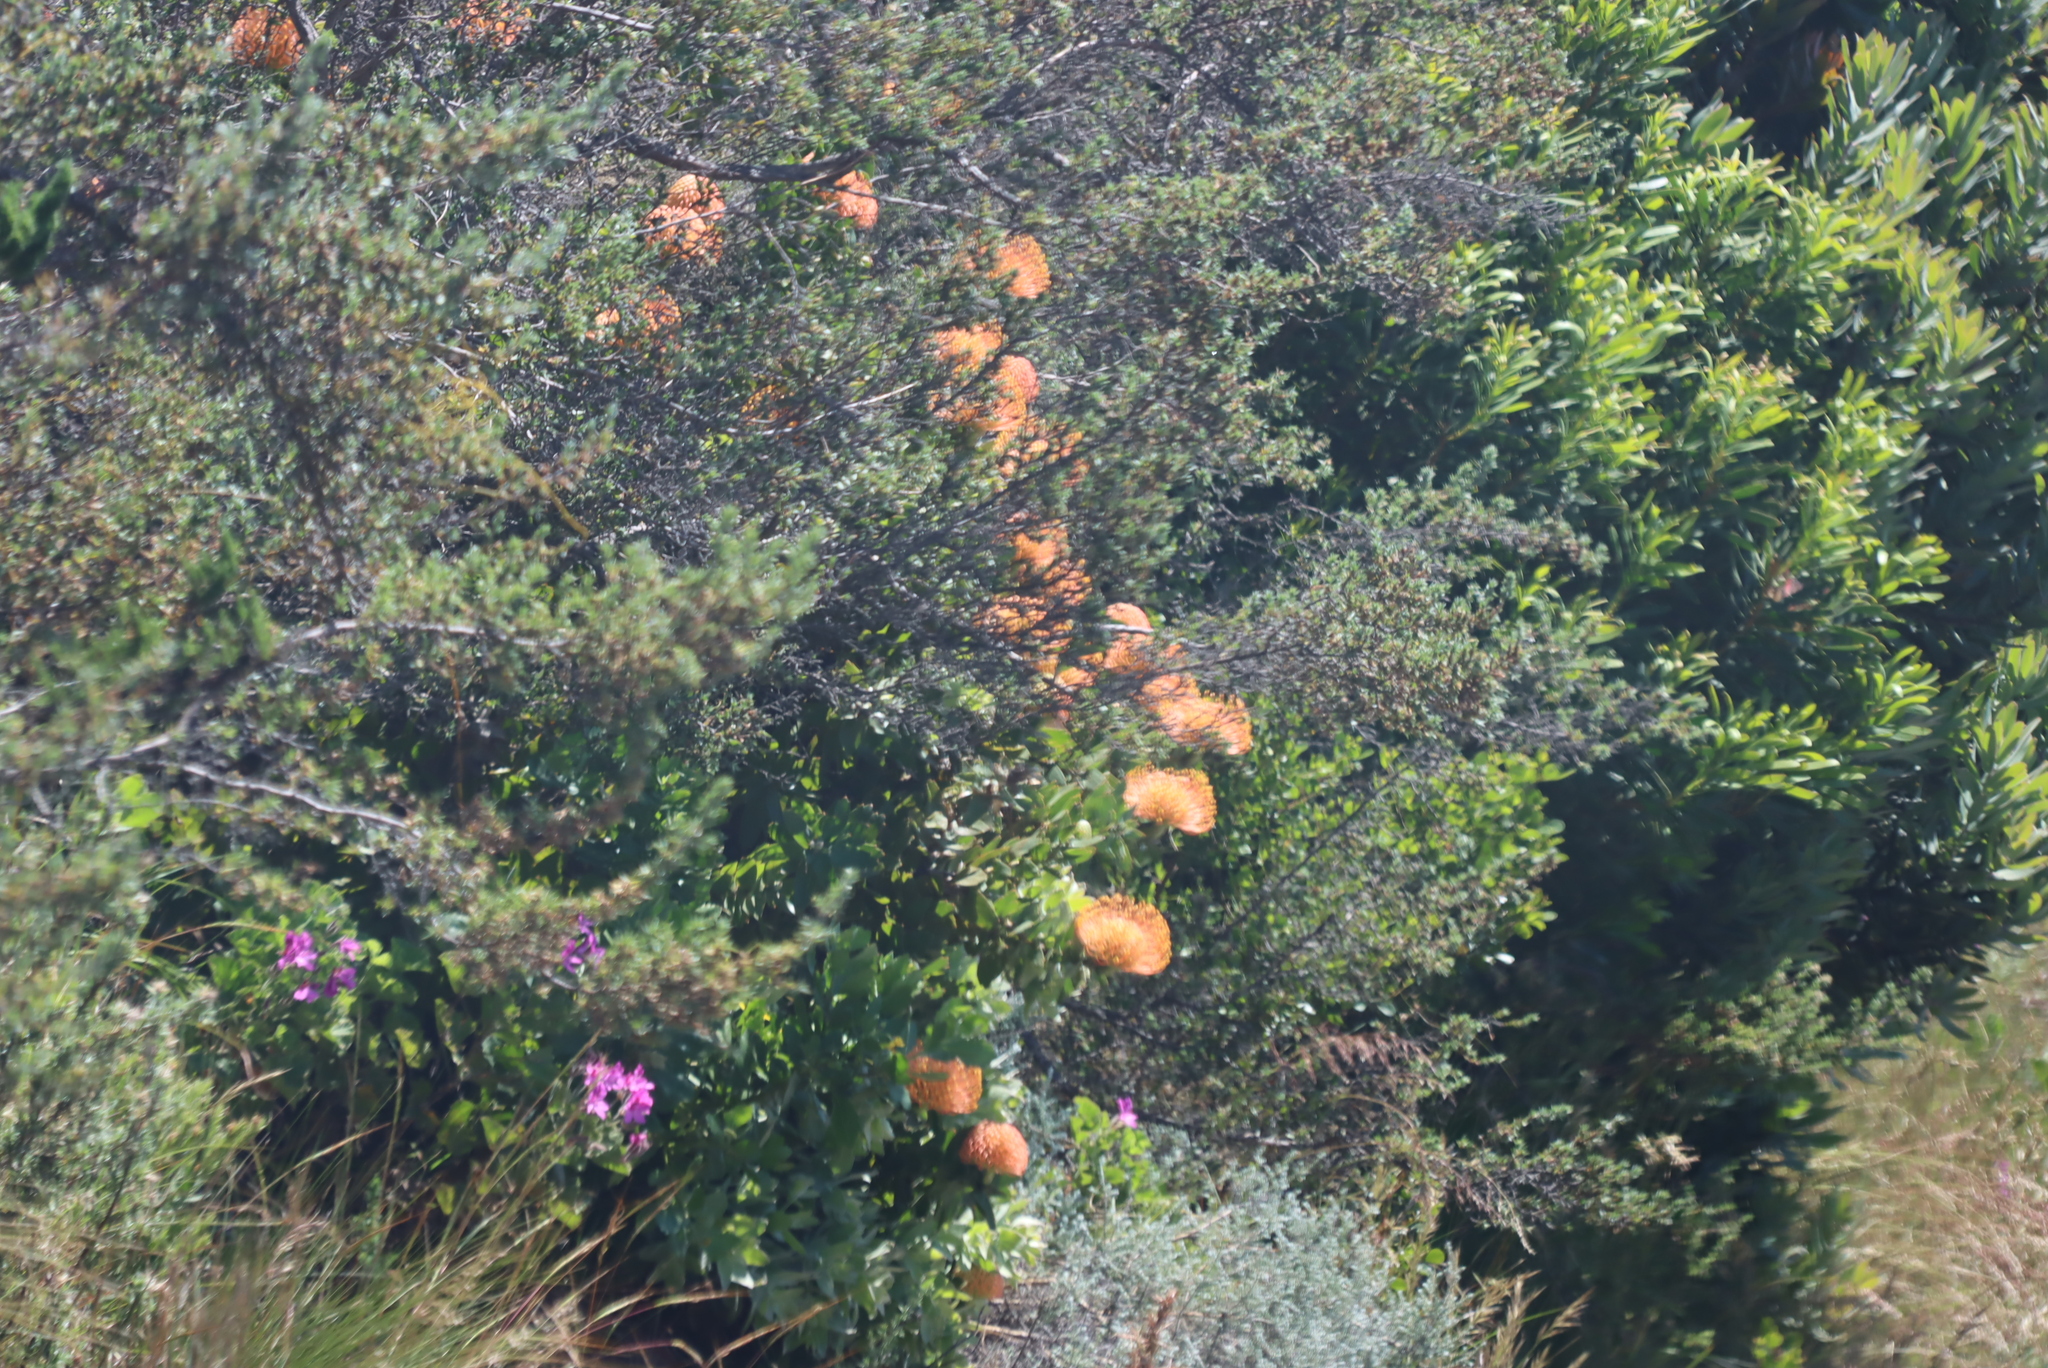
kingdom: Plantae
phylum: Tracheophyta
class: Magnoliopsida
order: Proteales
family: Proteaceae
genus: Leucospermum
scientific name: Leucospermum cordifolium
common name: Red pincushion-protea
